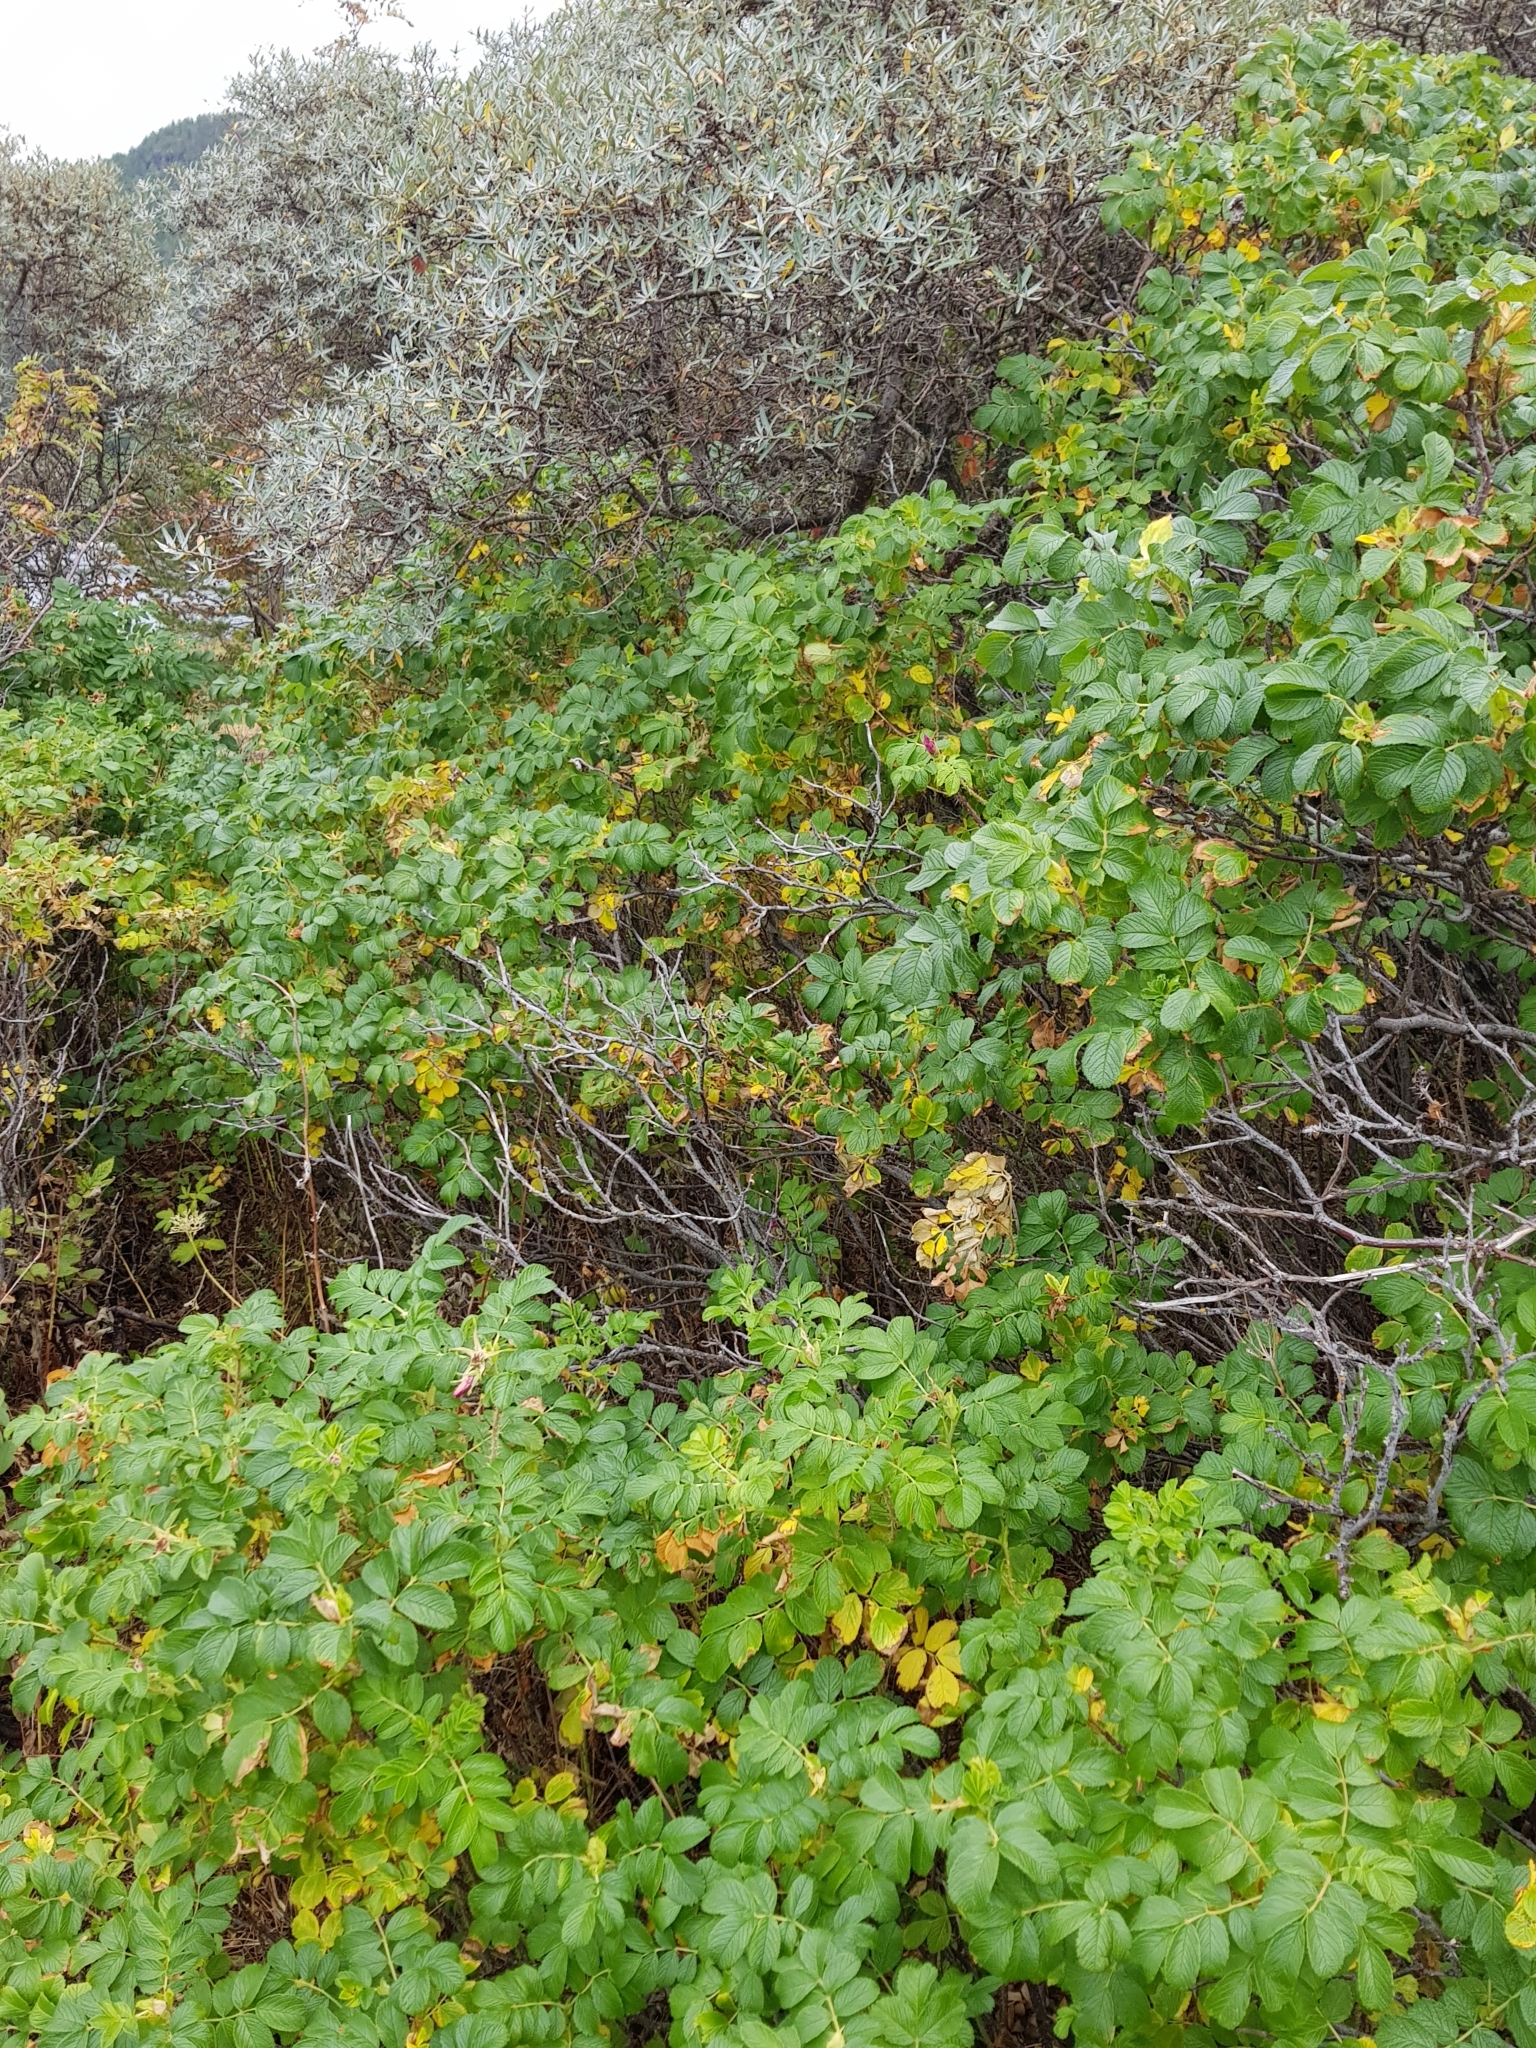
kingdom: Plantae
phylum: Tracheophyta
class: Magnoliopsida
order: Rosales
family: Rosaceae
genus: Rosa
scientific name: Rosa rugosa
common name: Japanese rose
